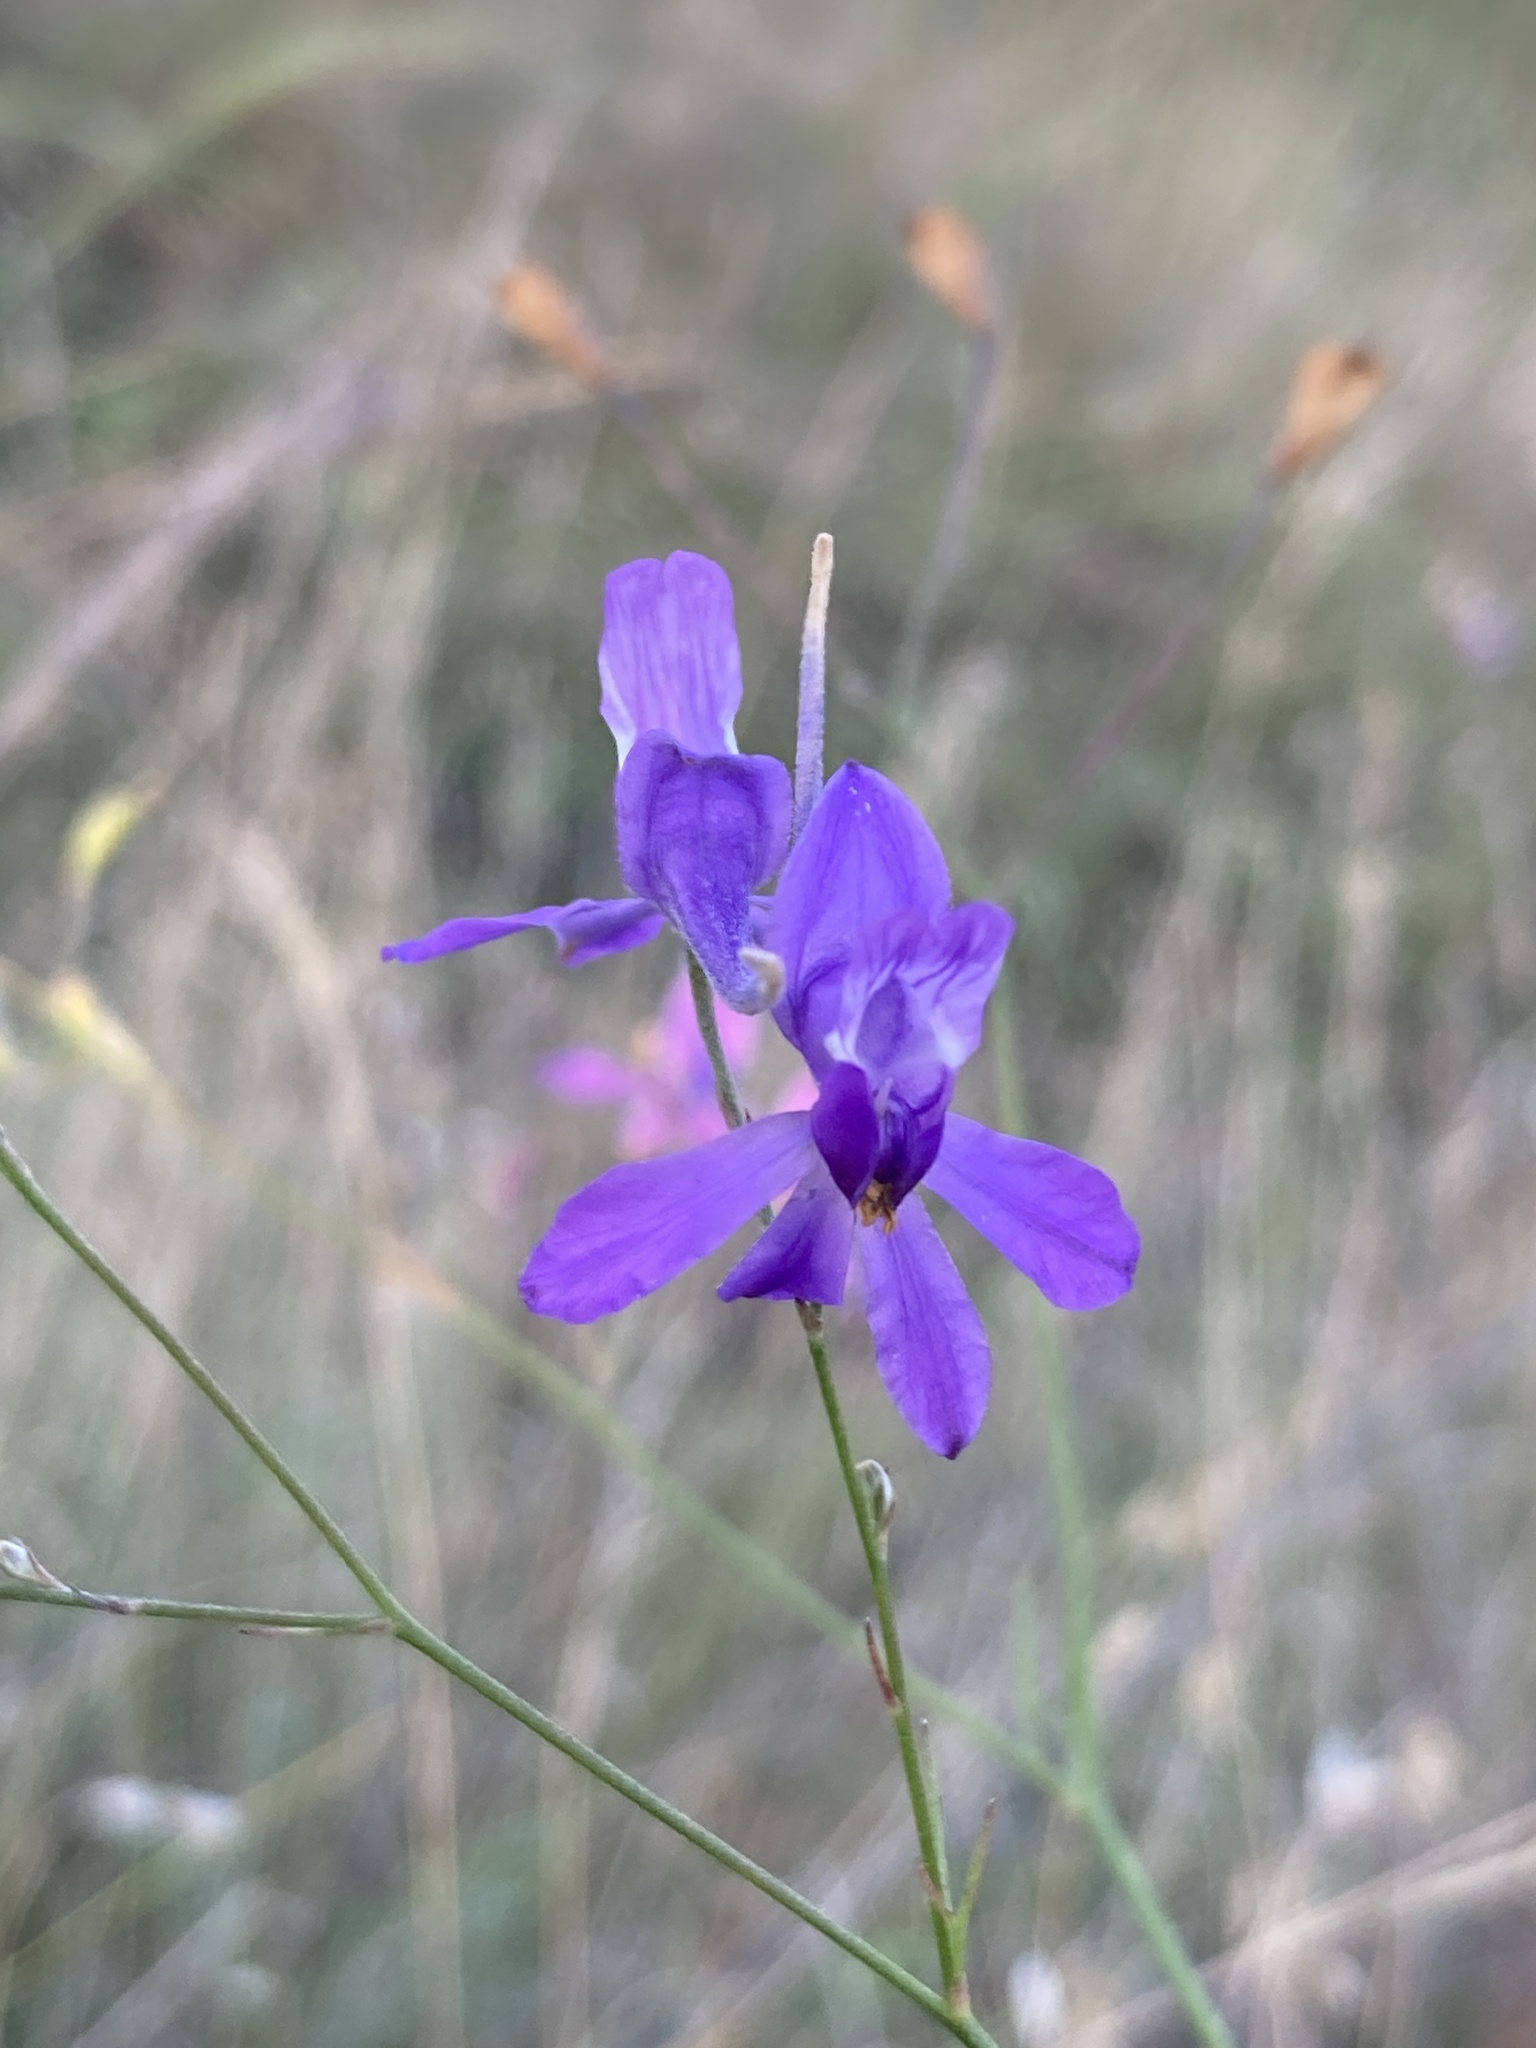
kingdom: Plantae
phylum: Tracheophyta
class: Magnoliopsida
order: Ranunculales
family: Ranunculaceae
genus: Delphinium
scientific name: Delphinium consolida
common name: Branching larkspur
